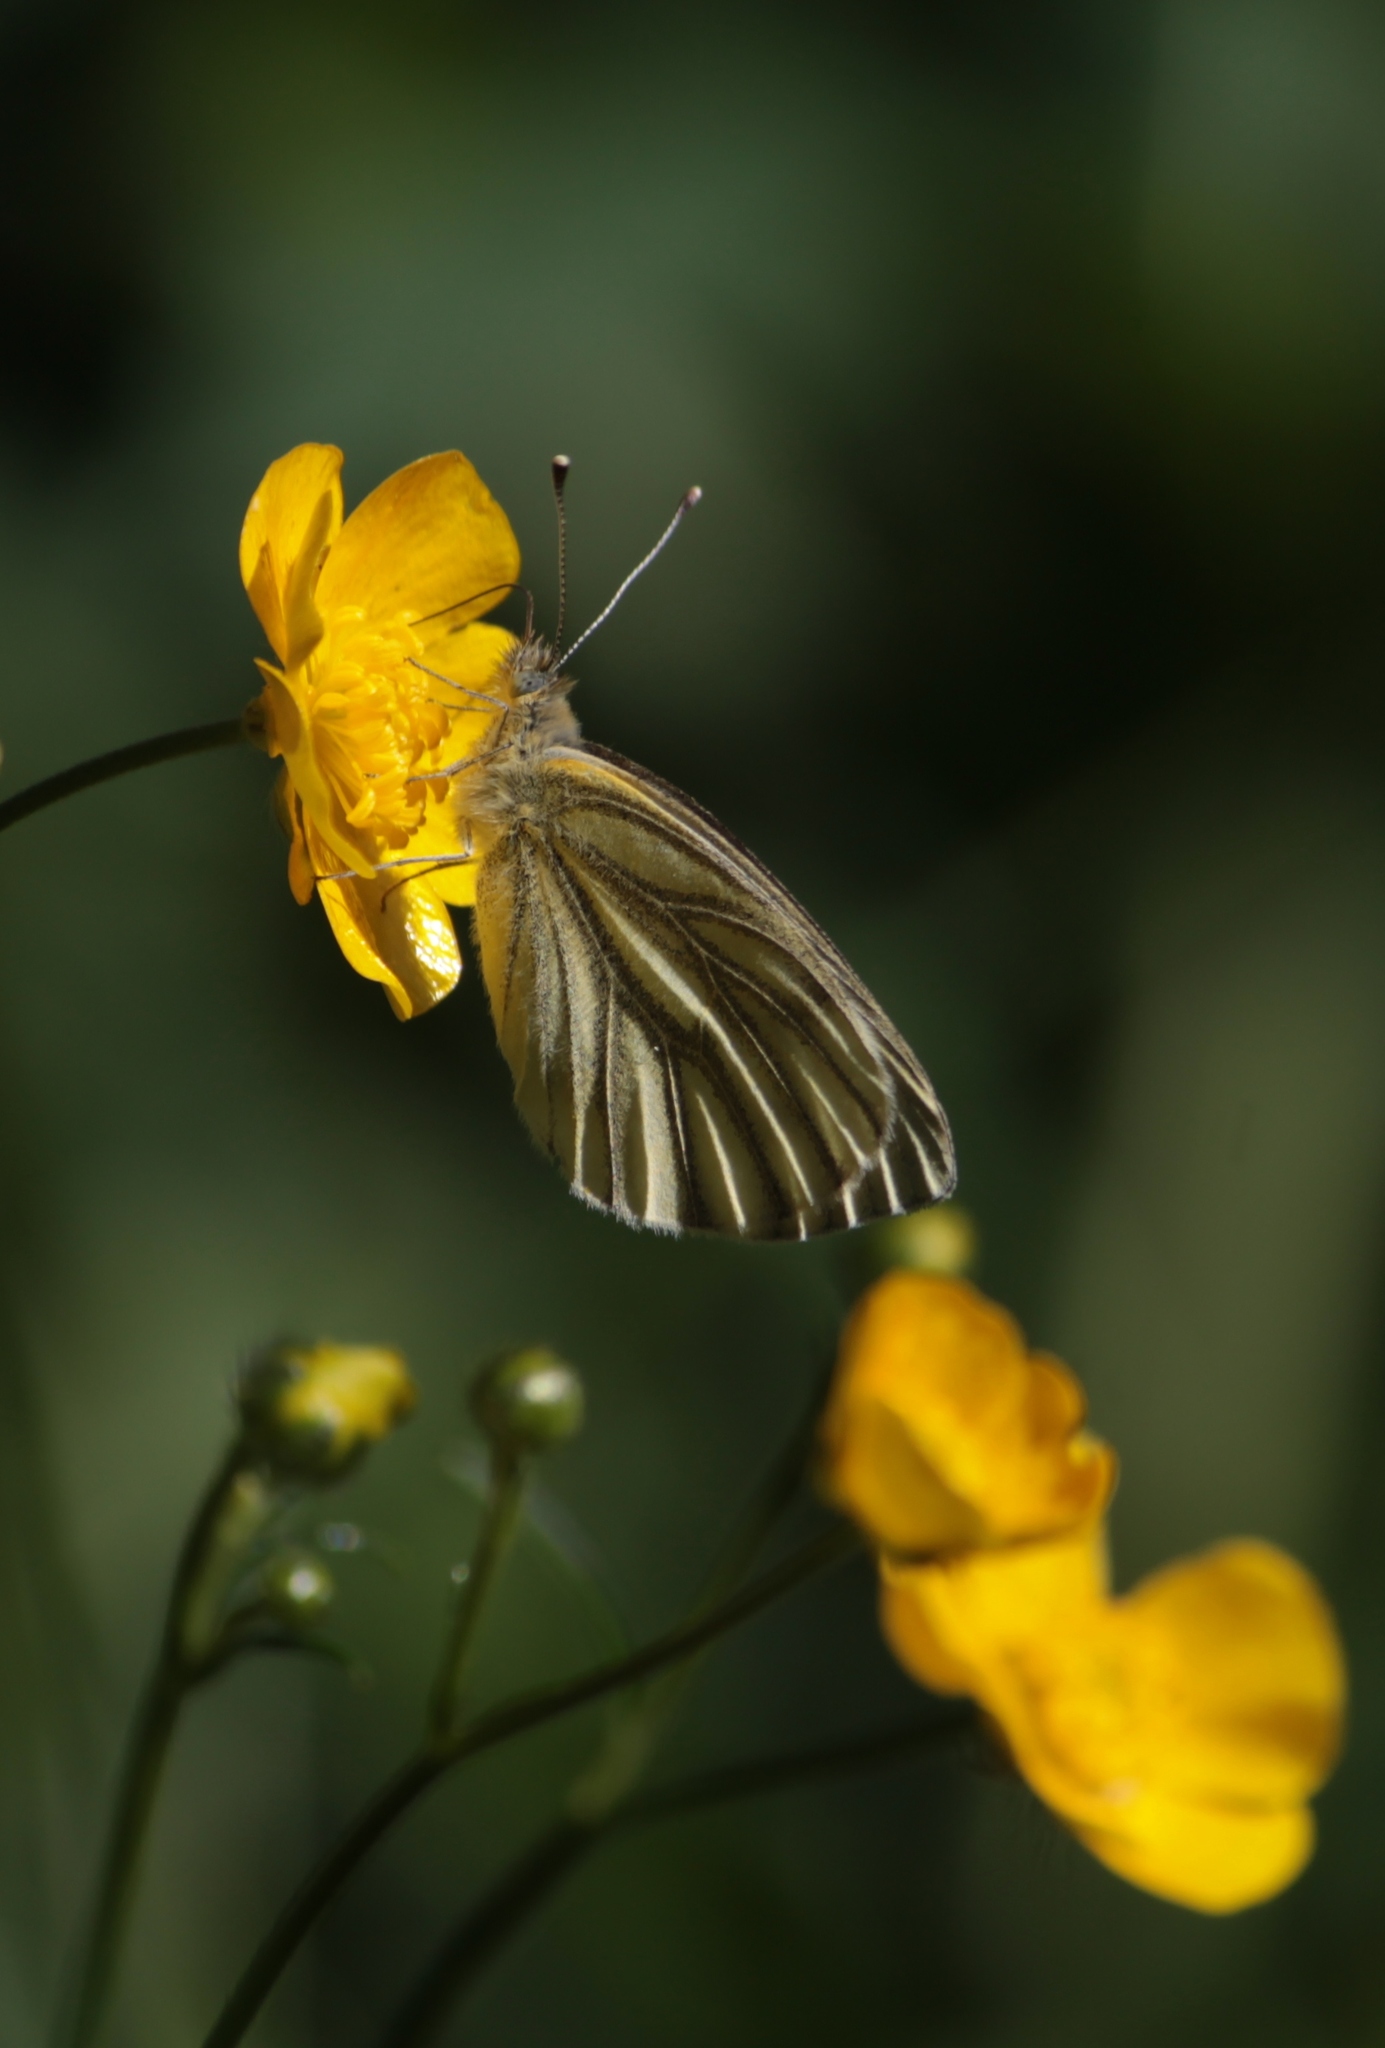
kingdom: Animalia
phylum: Arthropoda
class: Insecta
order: Lepidoptera
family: Pieridae
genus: Pieris
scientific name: Pieris napi
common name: Green-veined white
